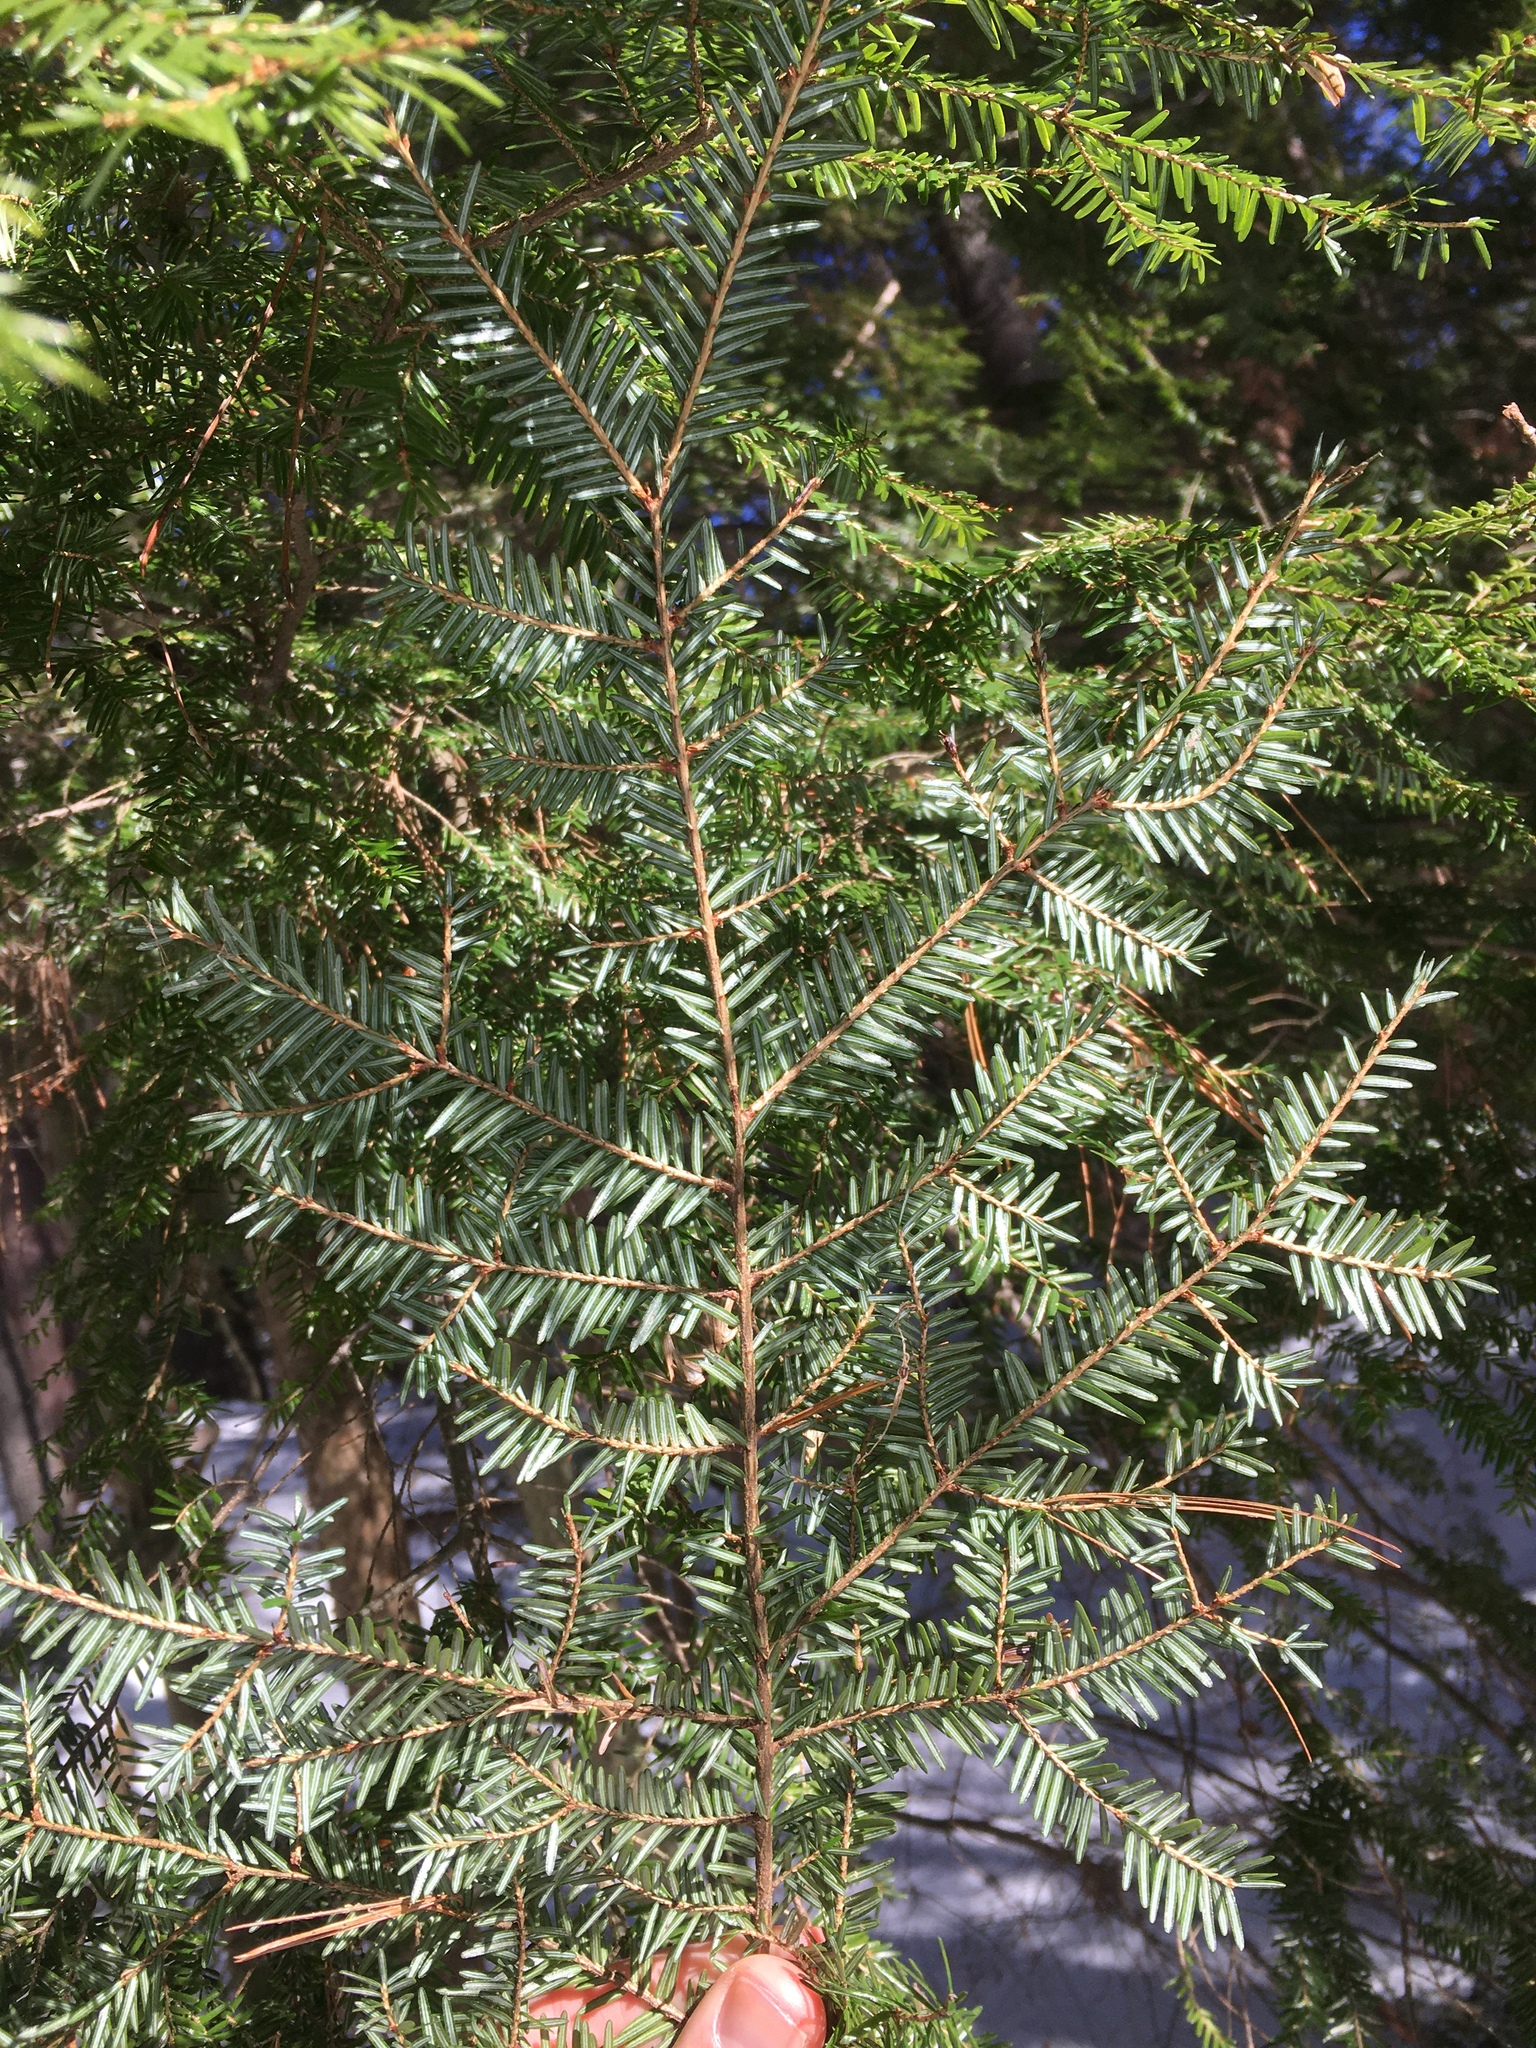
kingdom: Plantae
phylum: Tracheophyta
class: Pinopsida
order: Pinales
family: Pinaceae
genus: Tsuga
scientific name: Tsuga canadensis
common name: Eastern hemlock
